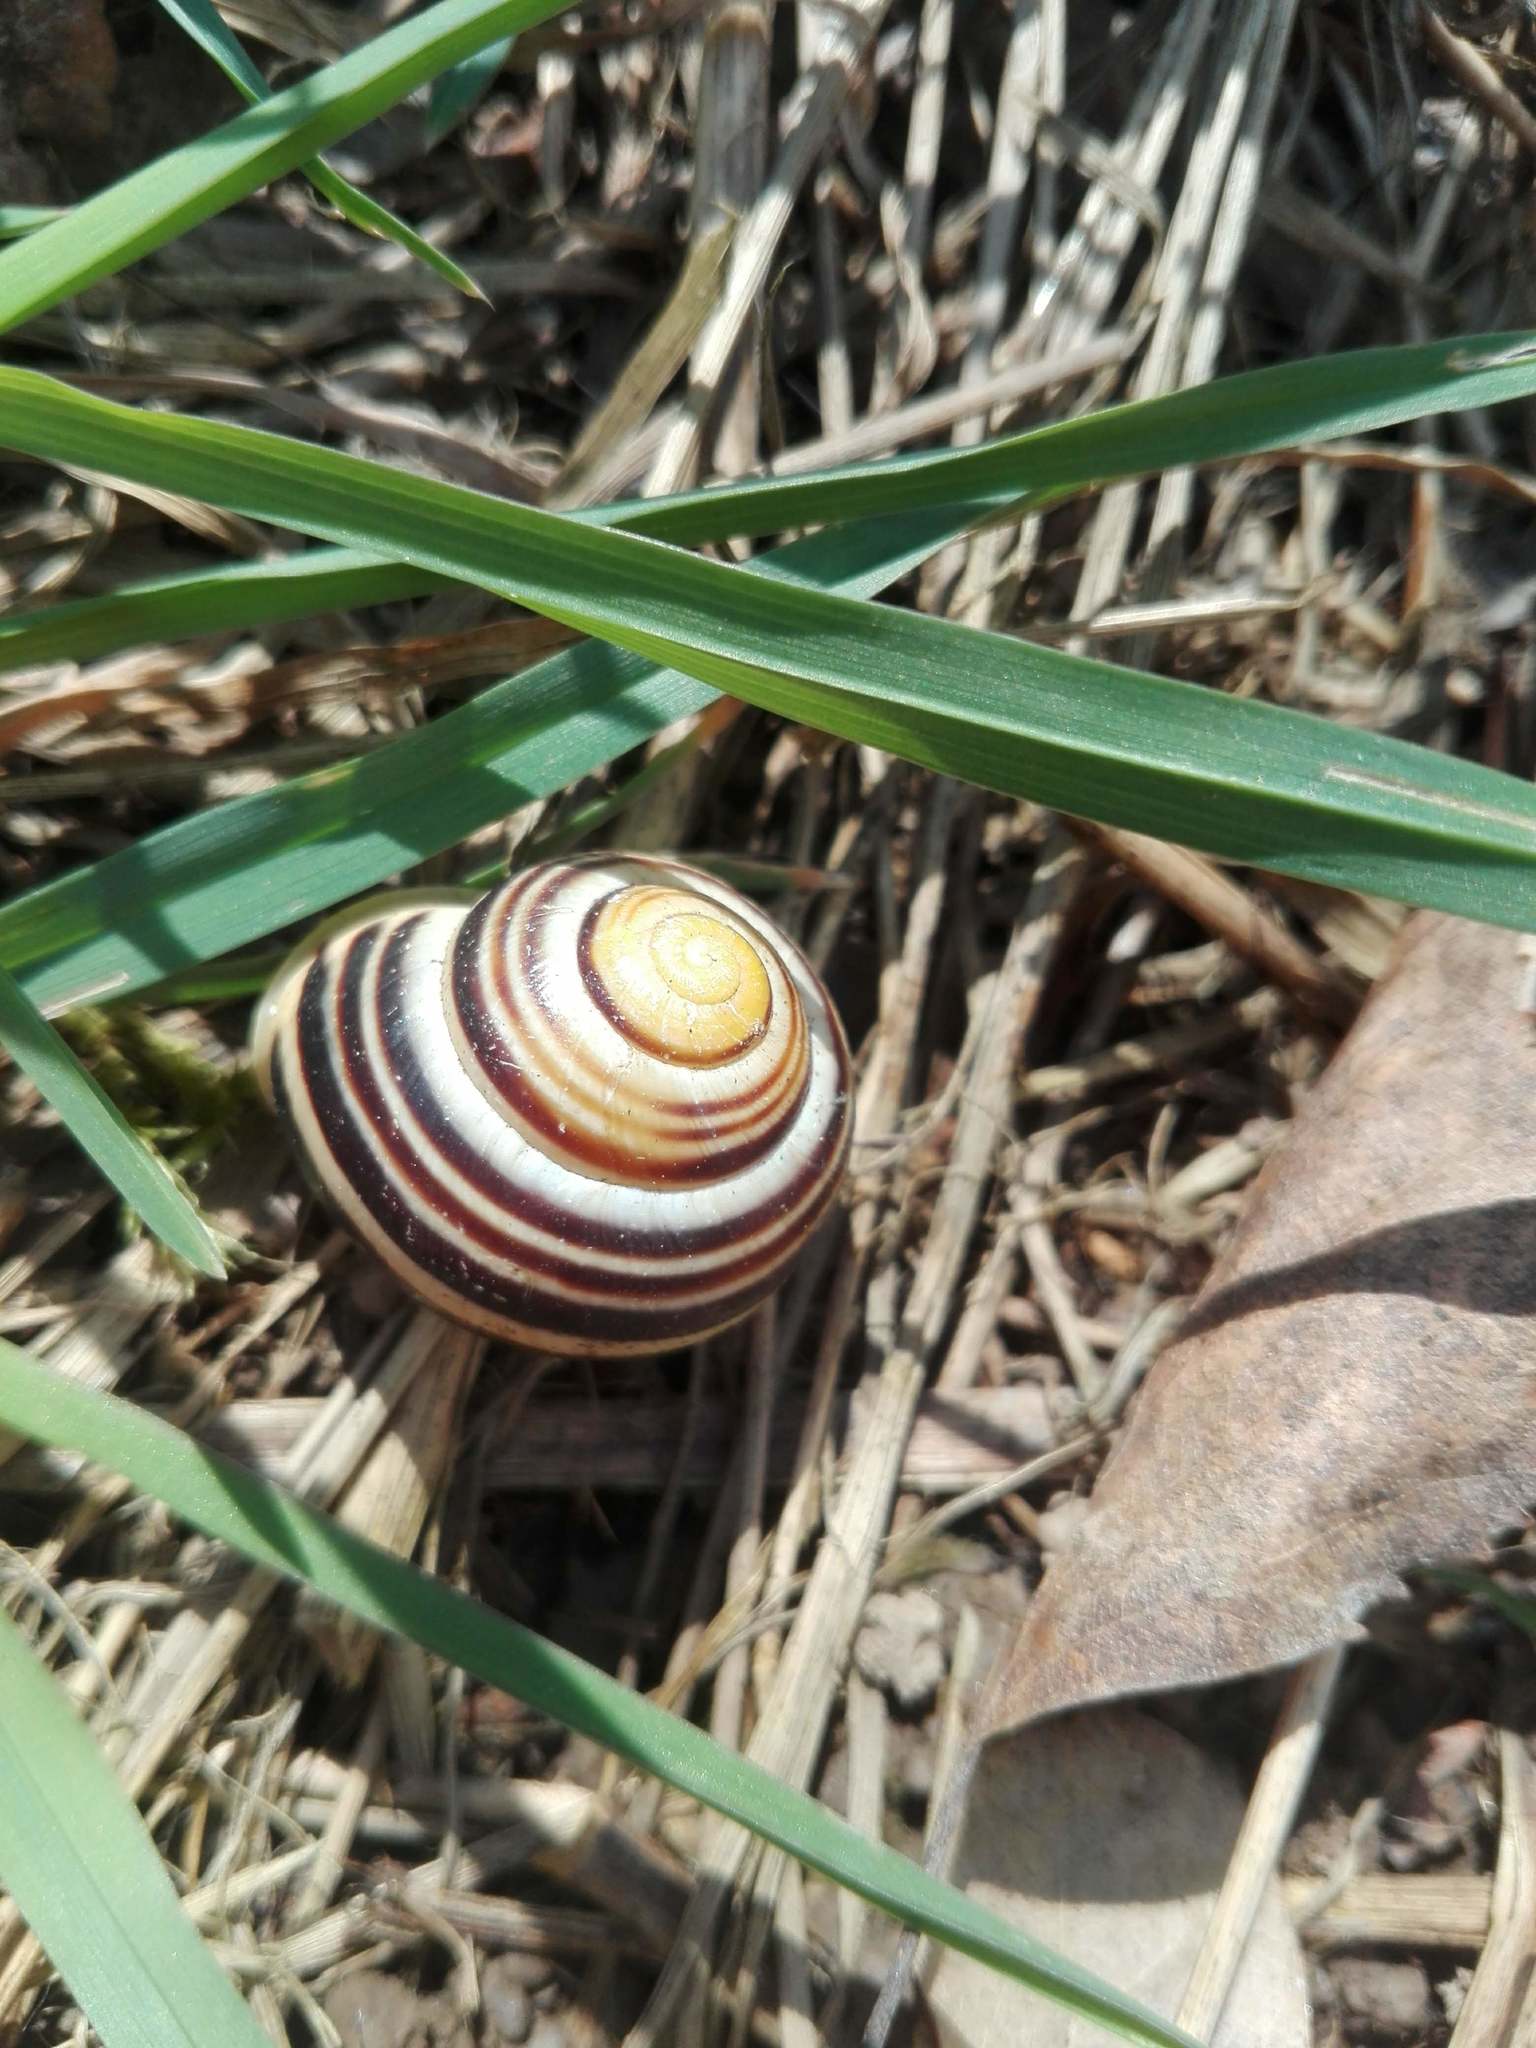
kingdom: Animalia
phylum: Mollusca
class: Gastropoda
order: Stylommatophora
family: Helicidae
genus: Cepaea
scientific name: Cepaea hortensis
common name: White-lip gardensnail
